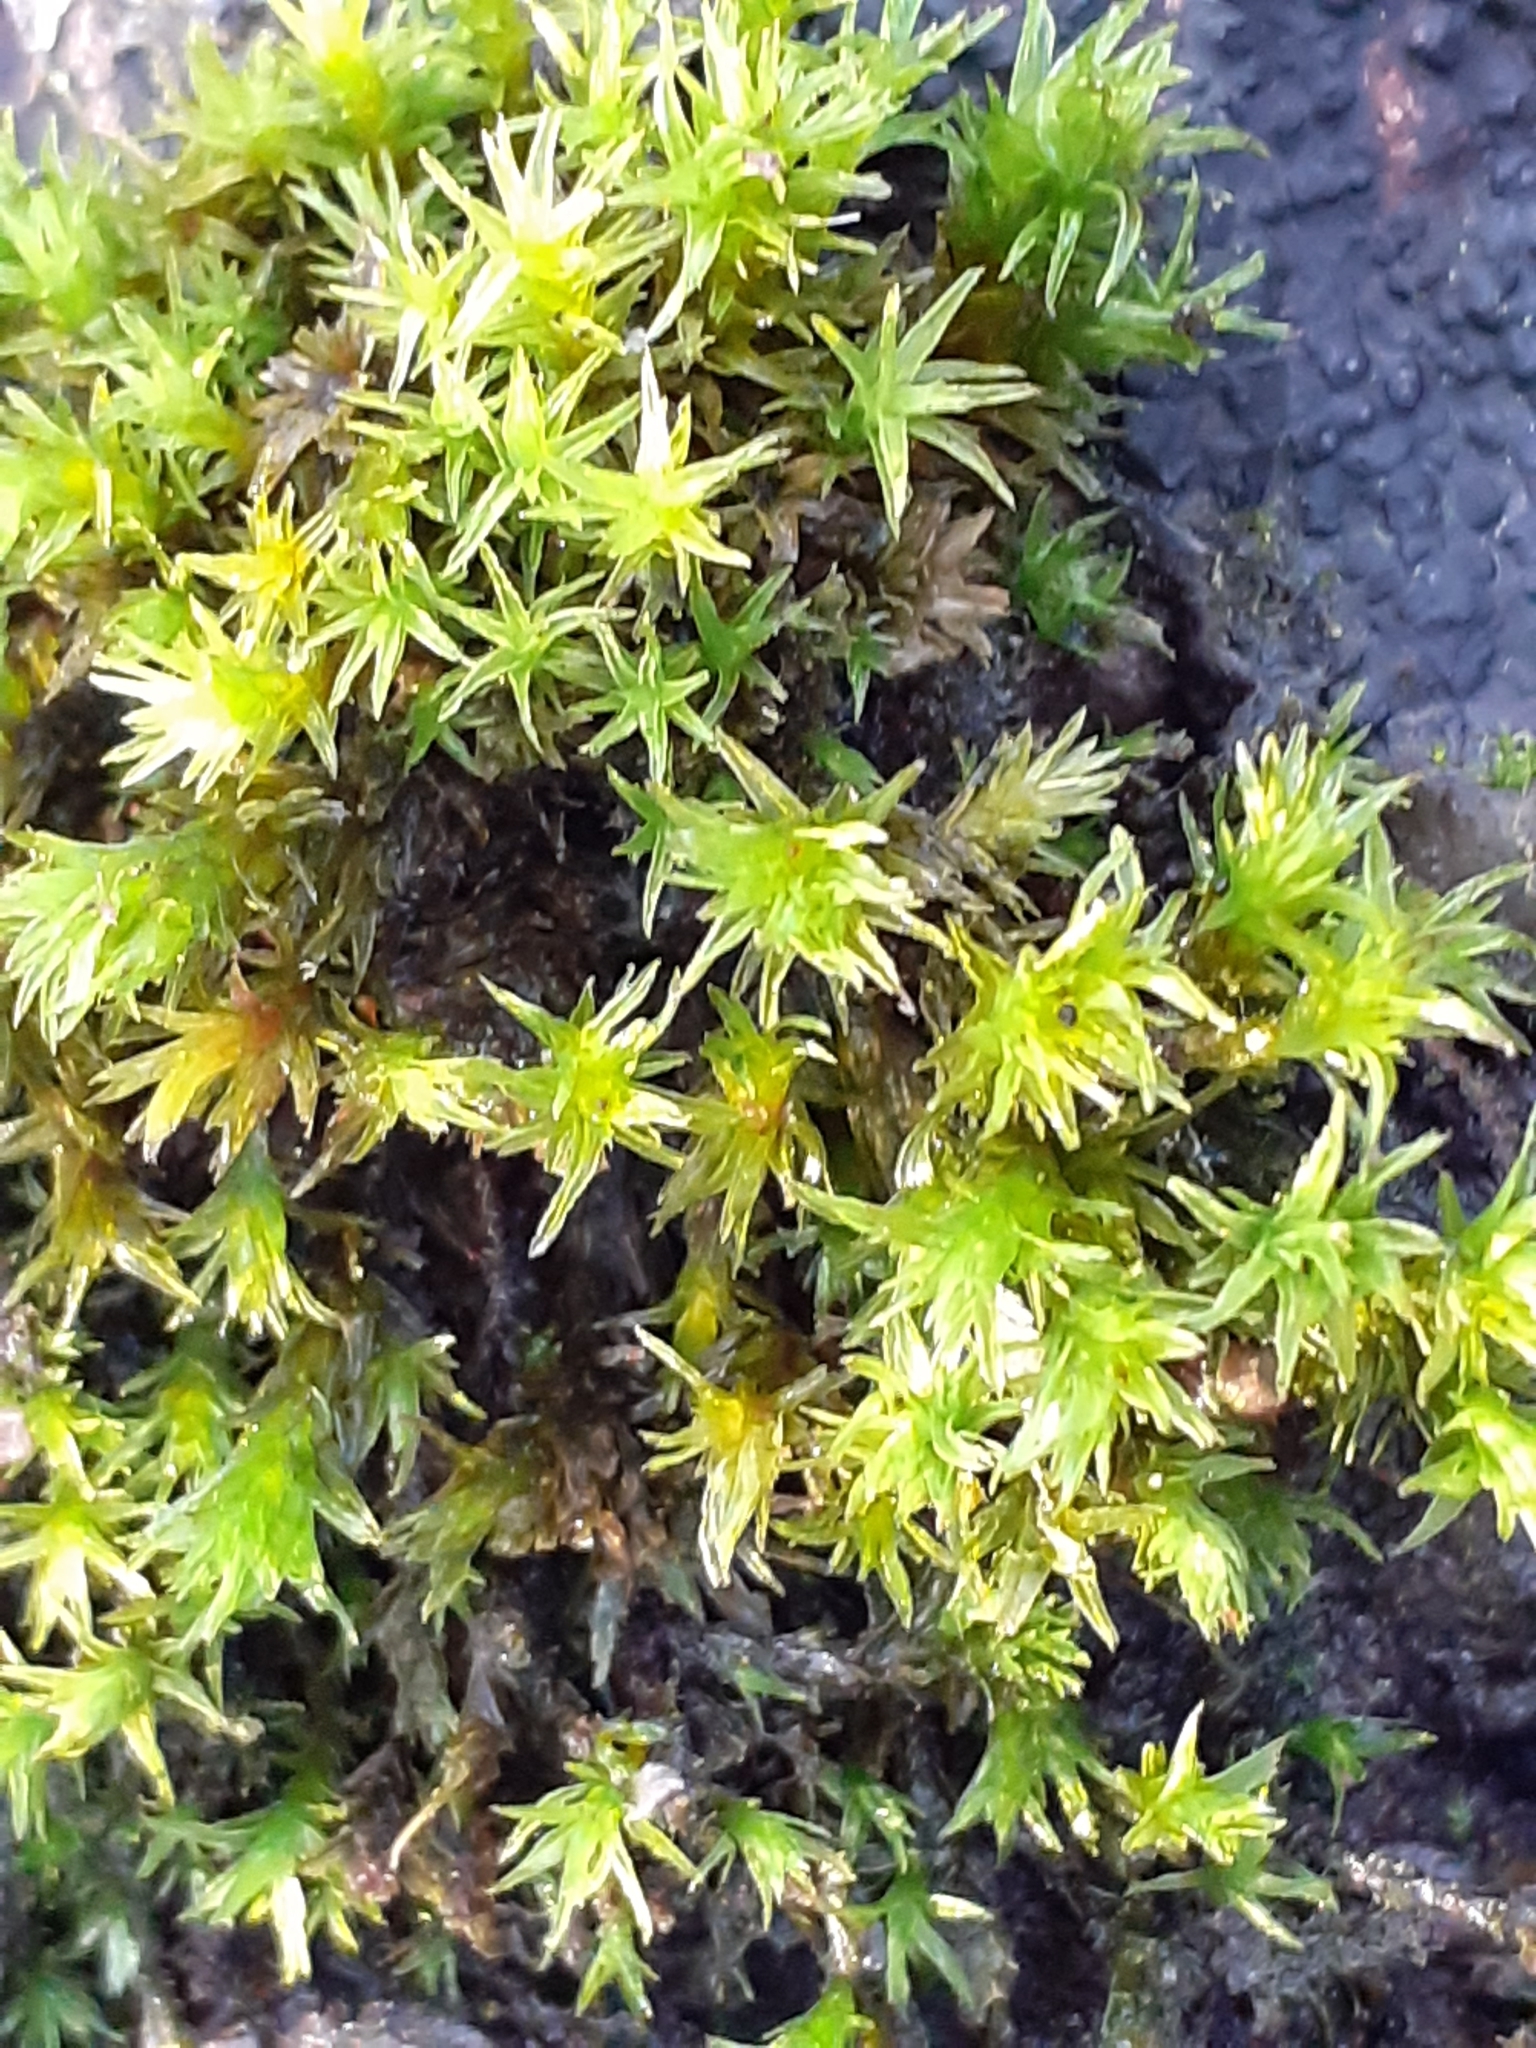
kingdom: Plantae
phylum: Bryophyta
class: Bryopsida
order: Orthotrichales
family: Orthotrichaceae
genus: Lewinskya
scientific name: Lewinskya affinis
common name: Wood bristle-moss
